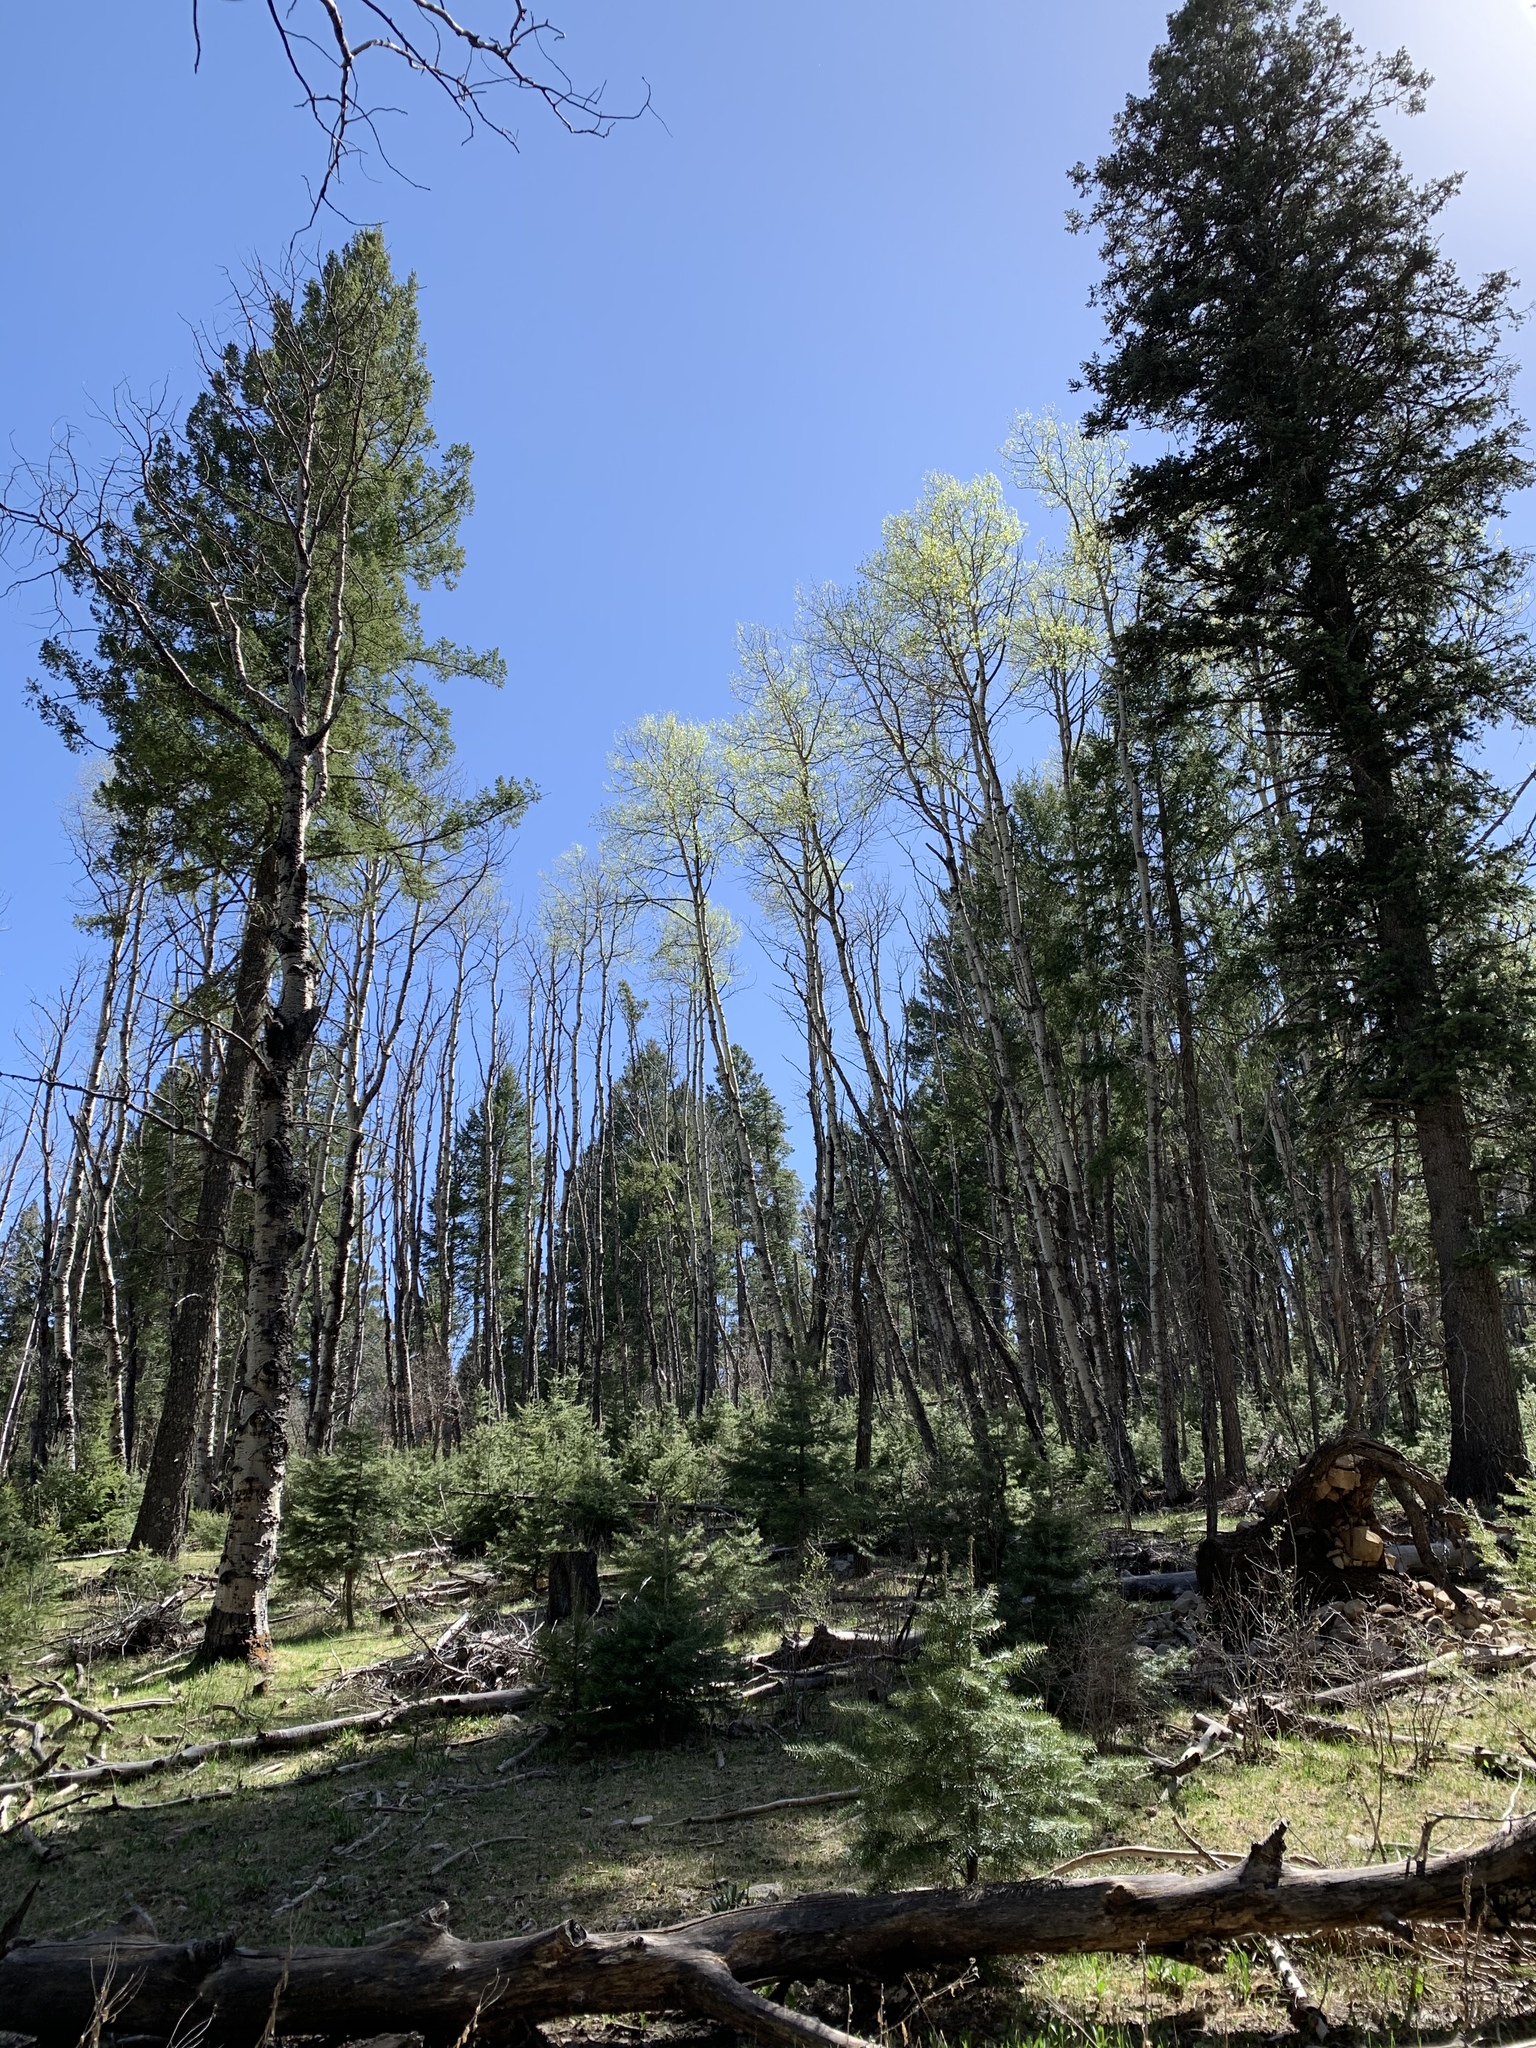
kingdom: Plantae
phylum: Tracheophyta
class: Magnoliopsida
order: Malpighiales
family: Salicaceae
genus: Populus
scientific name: Populus tremuloides
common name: Quaking aspen
